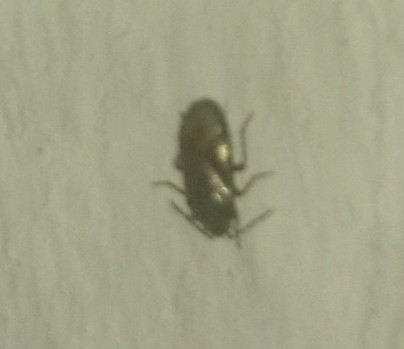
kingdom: Animalia
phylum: Arthropoda
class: Insecta
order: Hemiptera
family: Rhyparochromidae
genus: Lamprodema
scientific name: Lamprodema maura
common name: Seed bug
